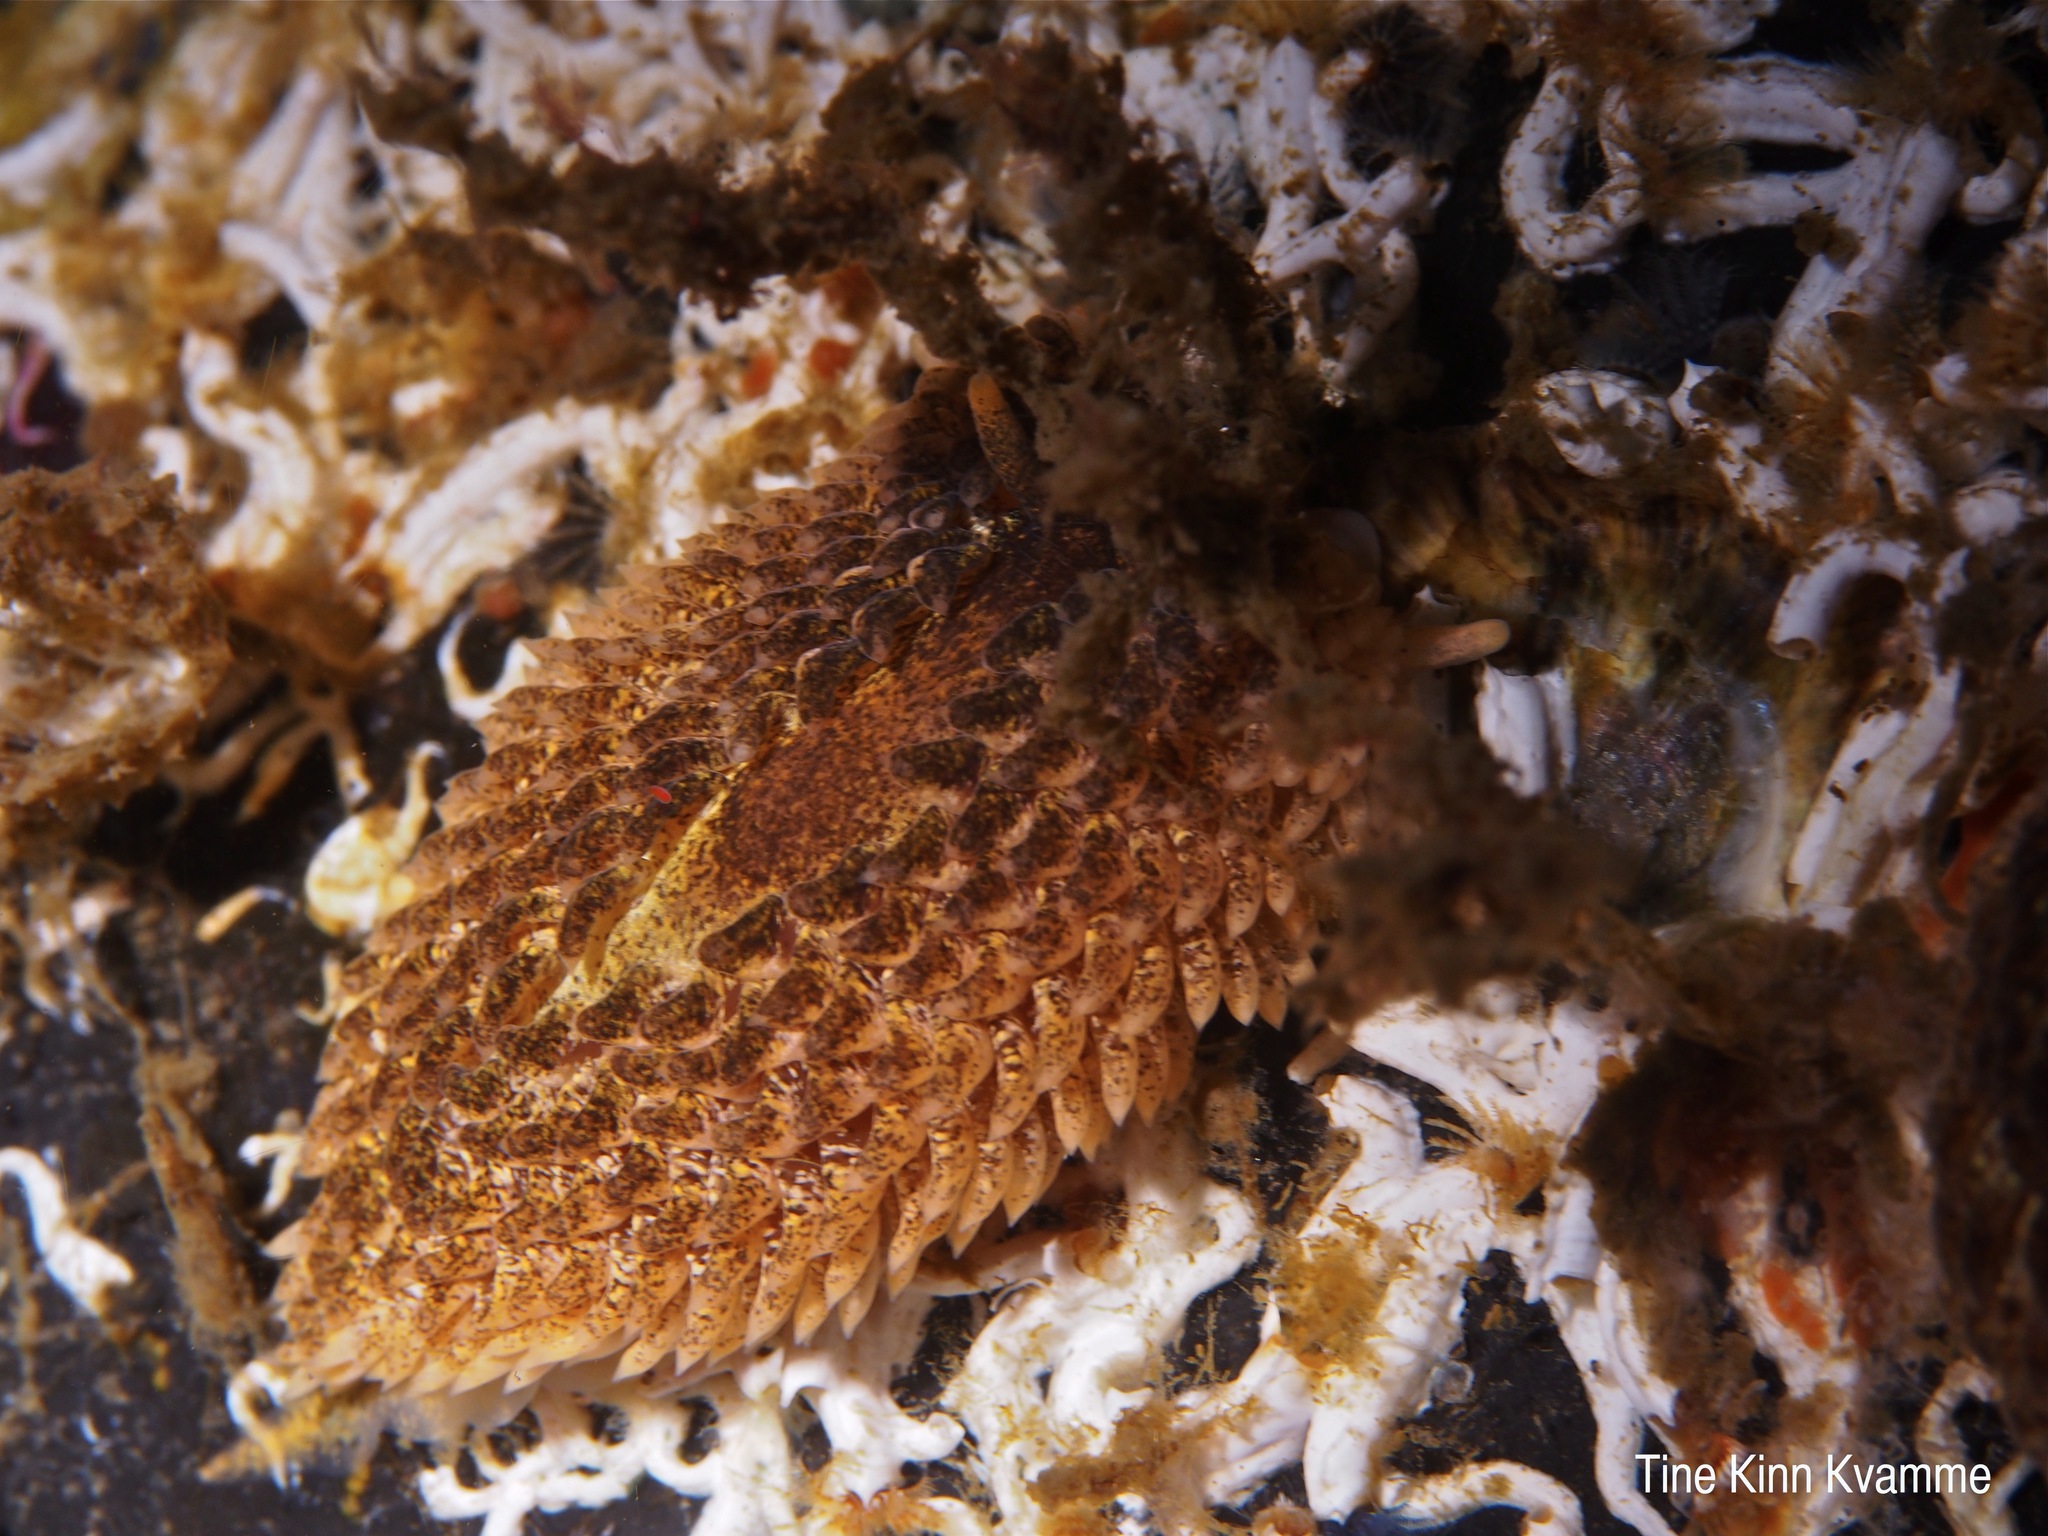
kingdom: Animalia
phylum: Mollusca
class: Gastropoda
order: Nudibranchia
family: Aeolidiidae
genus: Aeolidia
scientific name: Aeolidia papillosa
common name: Common grey sea slug
